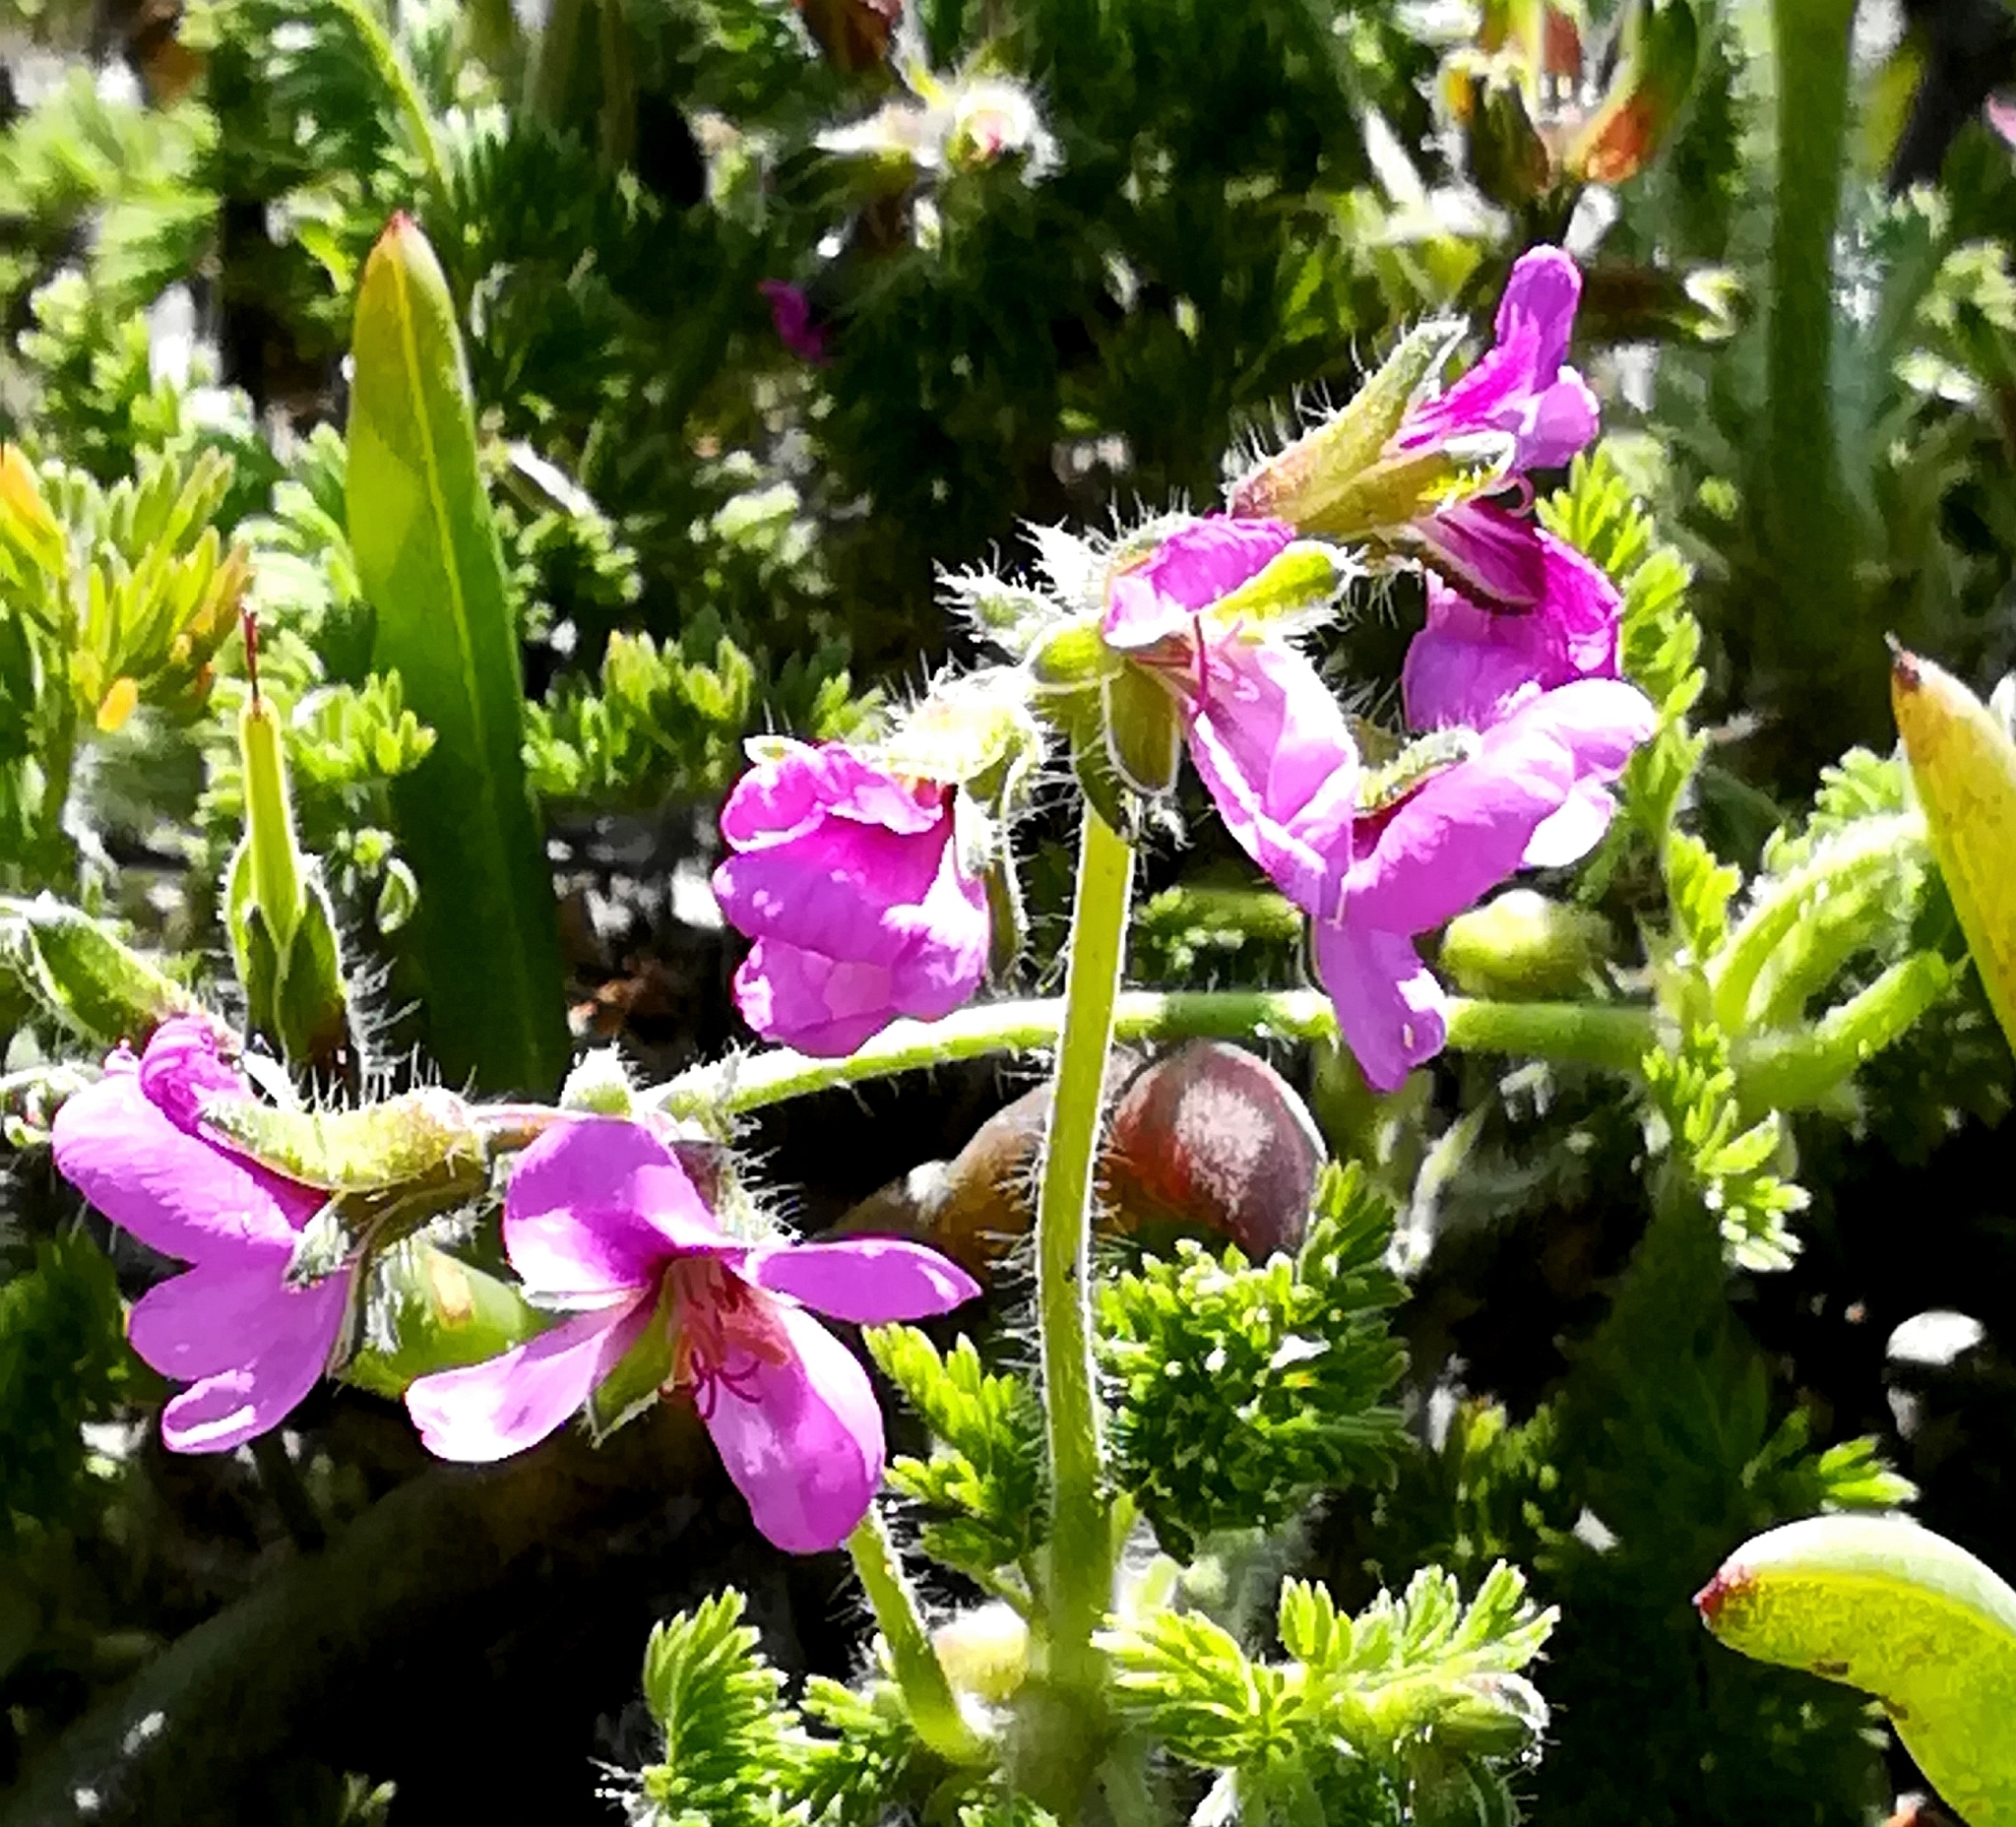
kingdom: Plantae
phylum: Tracheophyta
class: Magnoliopsida
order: Geraniales
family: Geraniaceae
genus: Pelargonium
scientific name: Pelargonium hirtum
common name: Fine-leaf pelargonium
